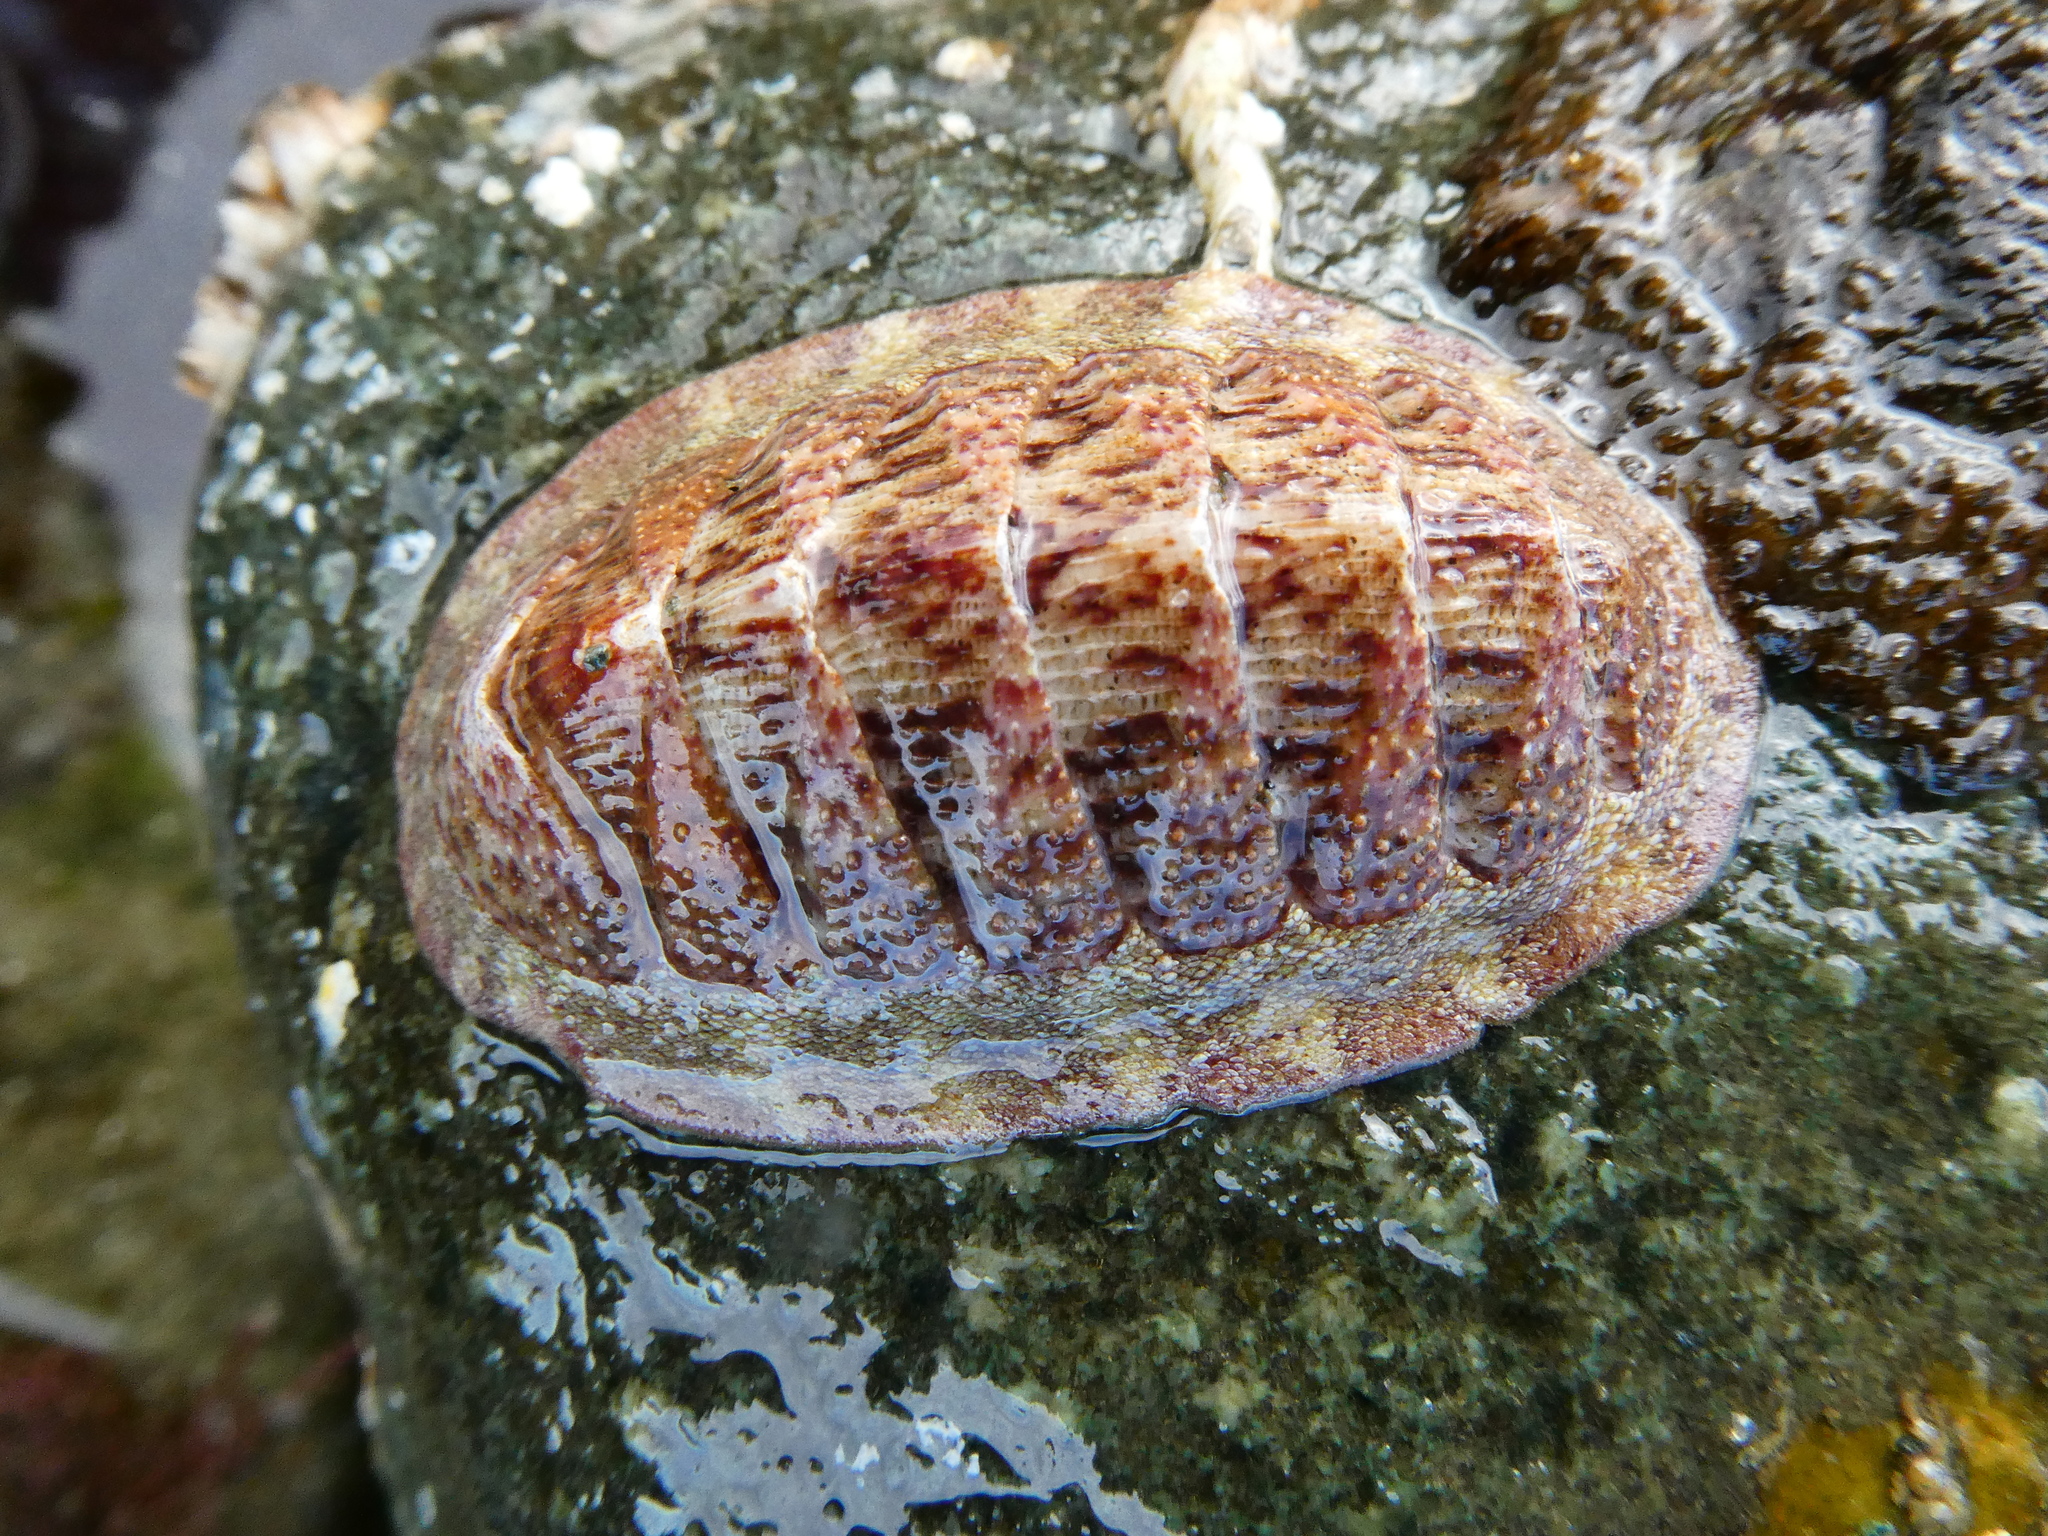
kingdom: Animalia
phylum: Mollusca
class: Polyplacophora
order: Chitonida
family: Ischnochitonidae
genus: Lepidozona
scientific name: Lepidozona mertensii
